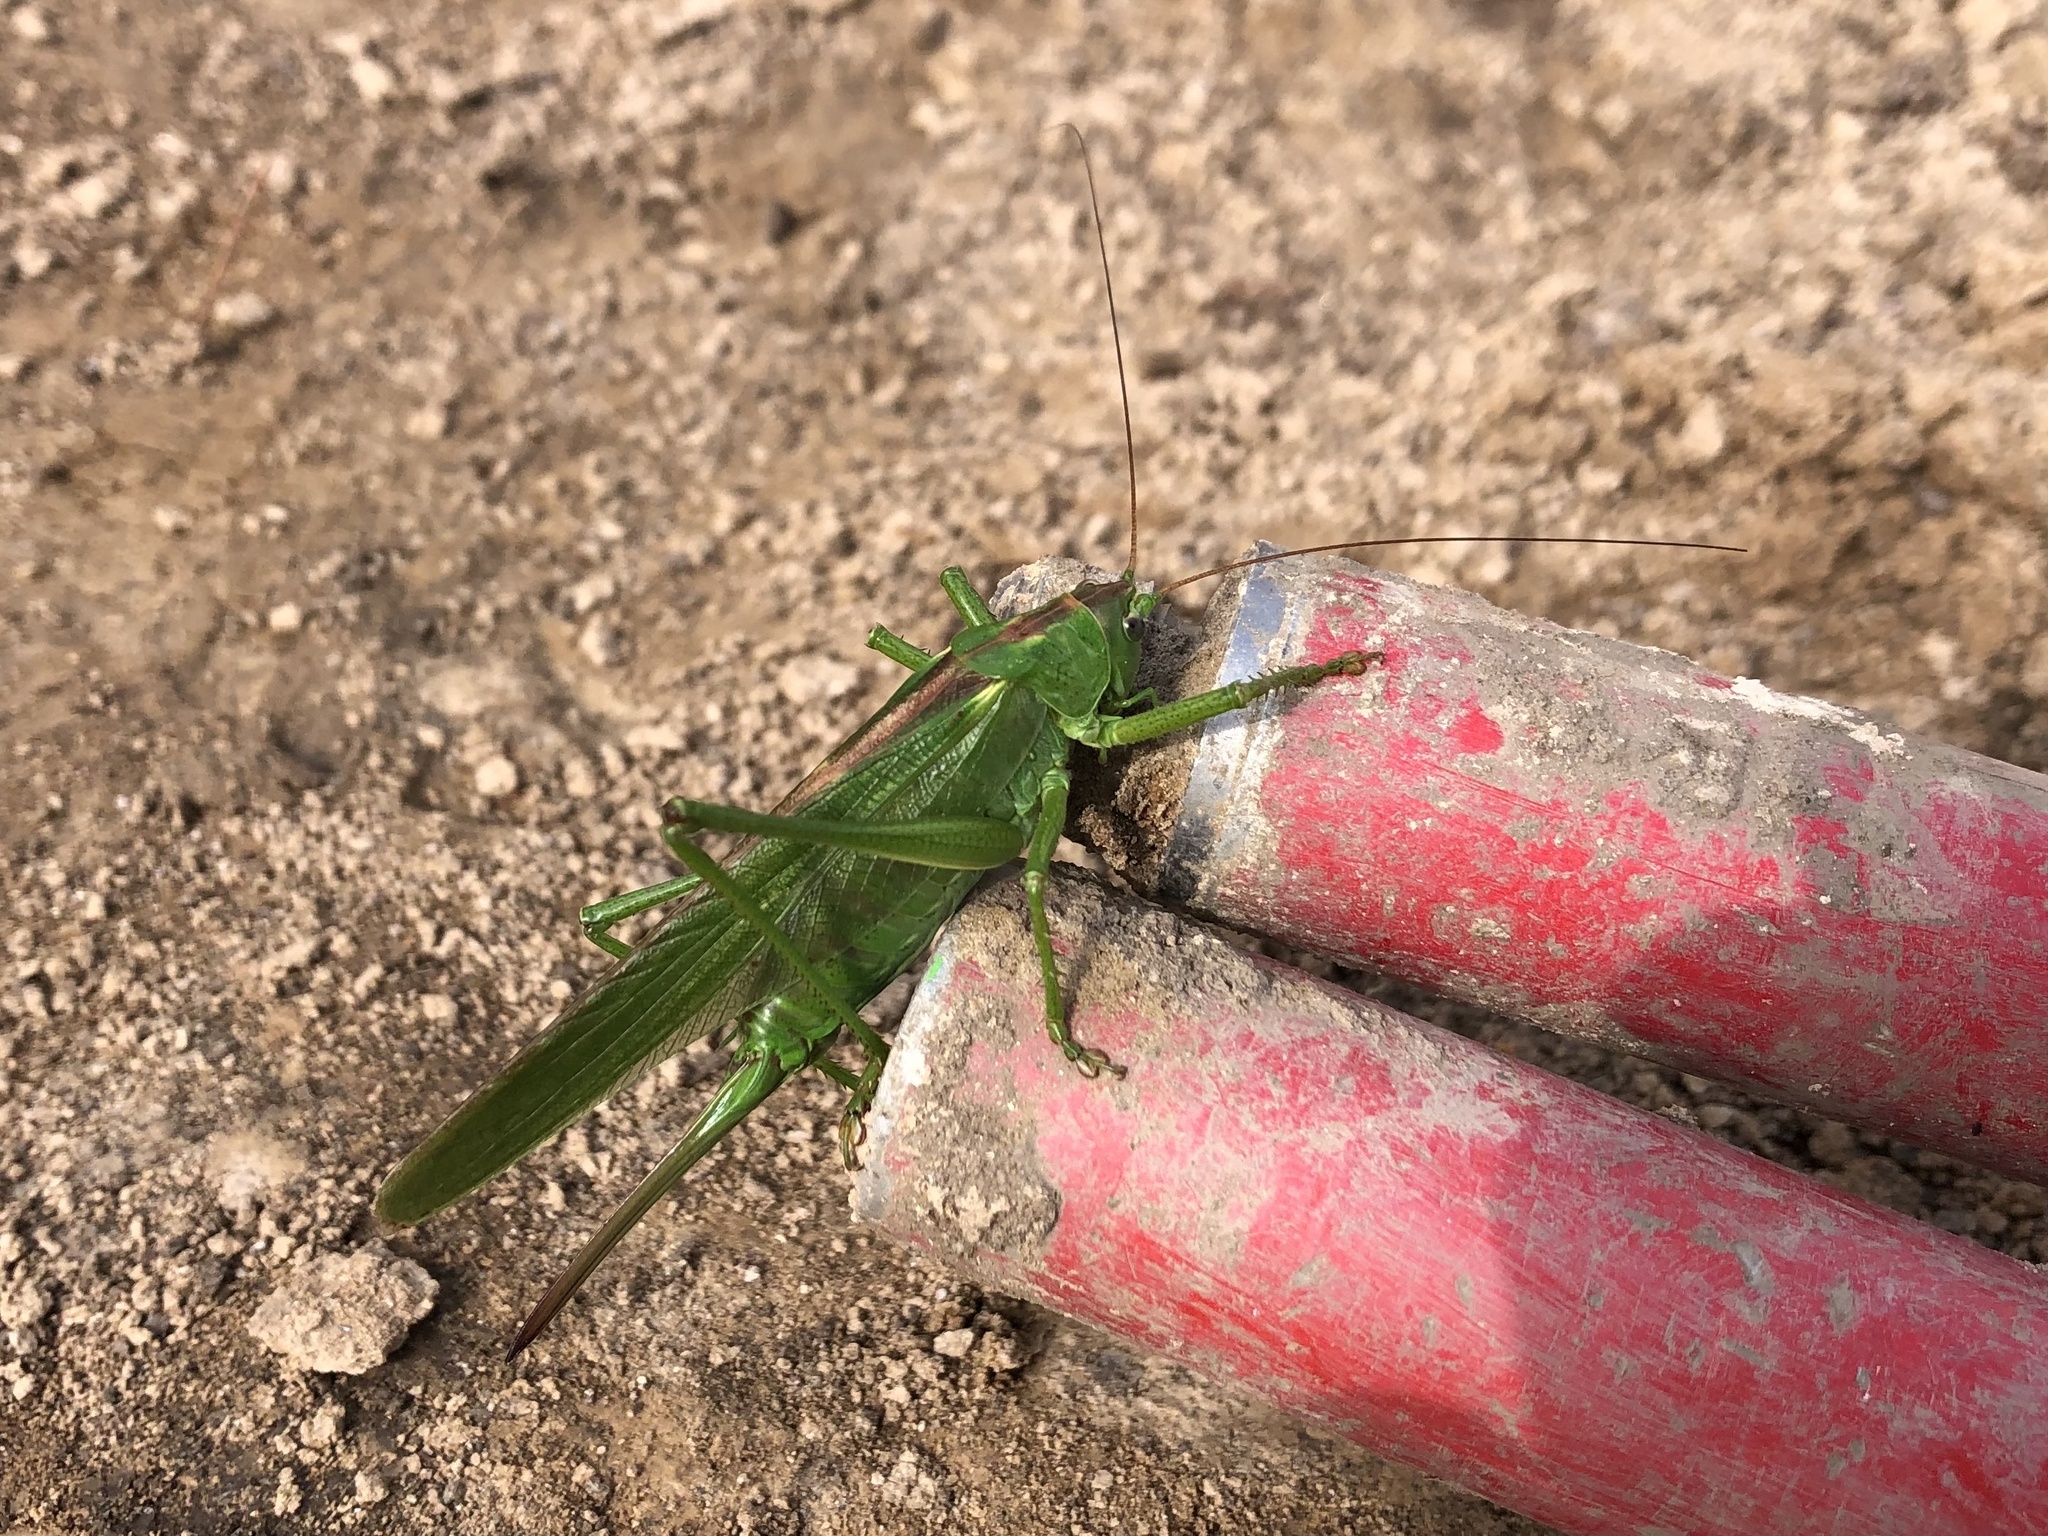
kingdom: Animalia
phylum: Arthropoda
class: Insecta
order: Orthoptera
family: Tettigoniidae
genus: Tettigonia
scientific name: Tettigonia viridissima
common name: Great green bush-cricket
